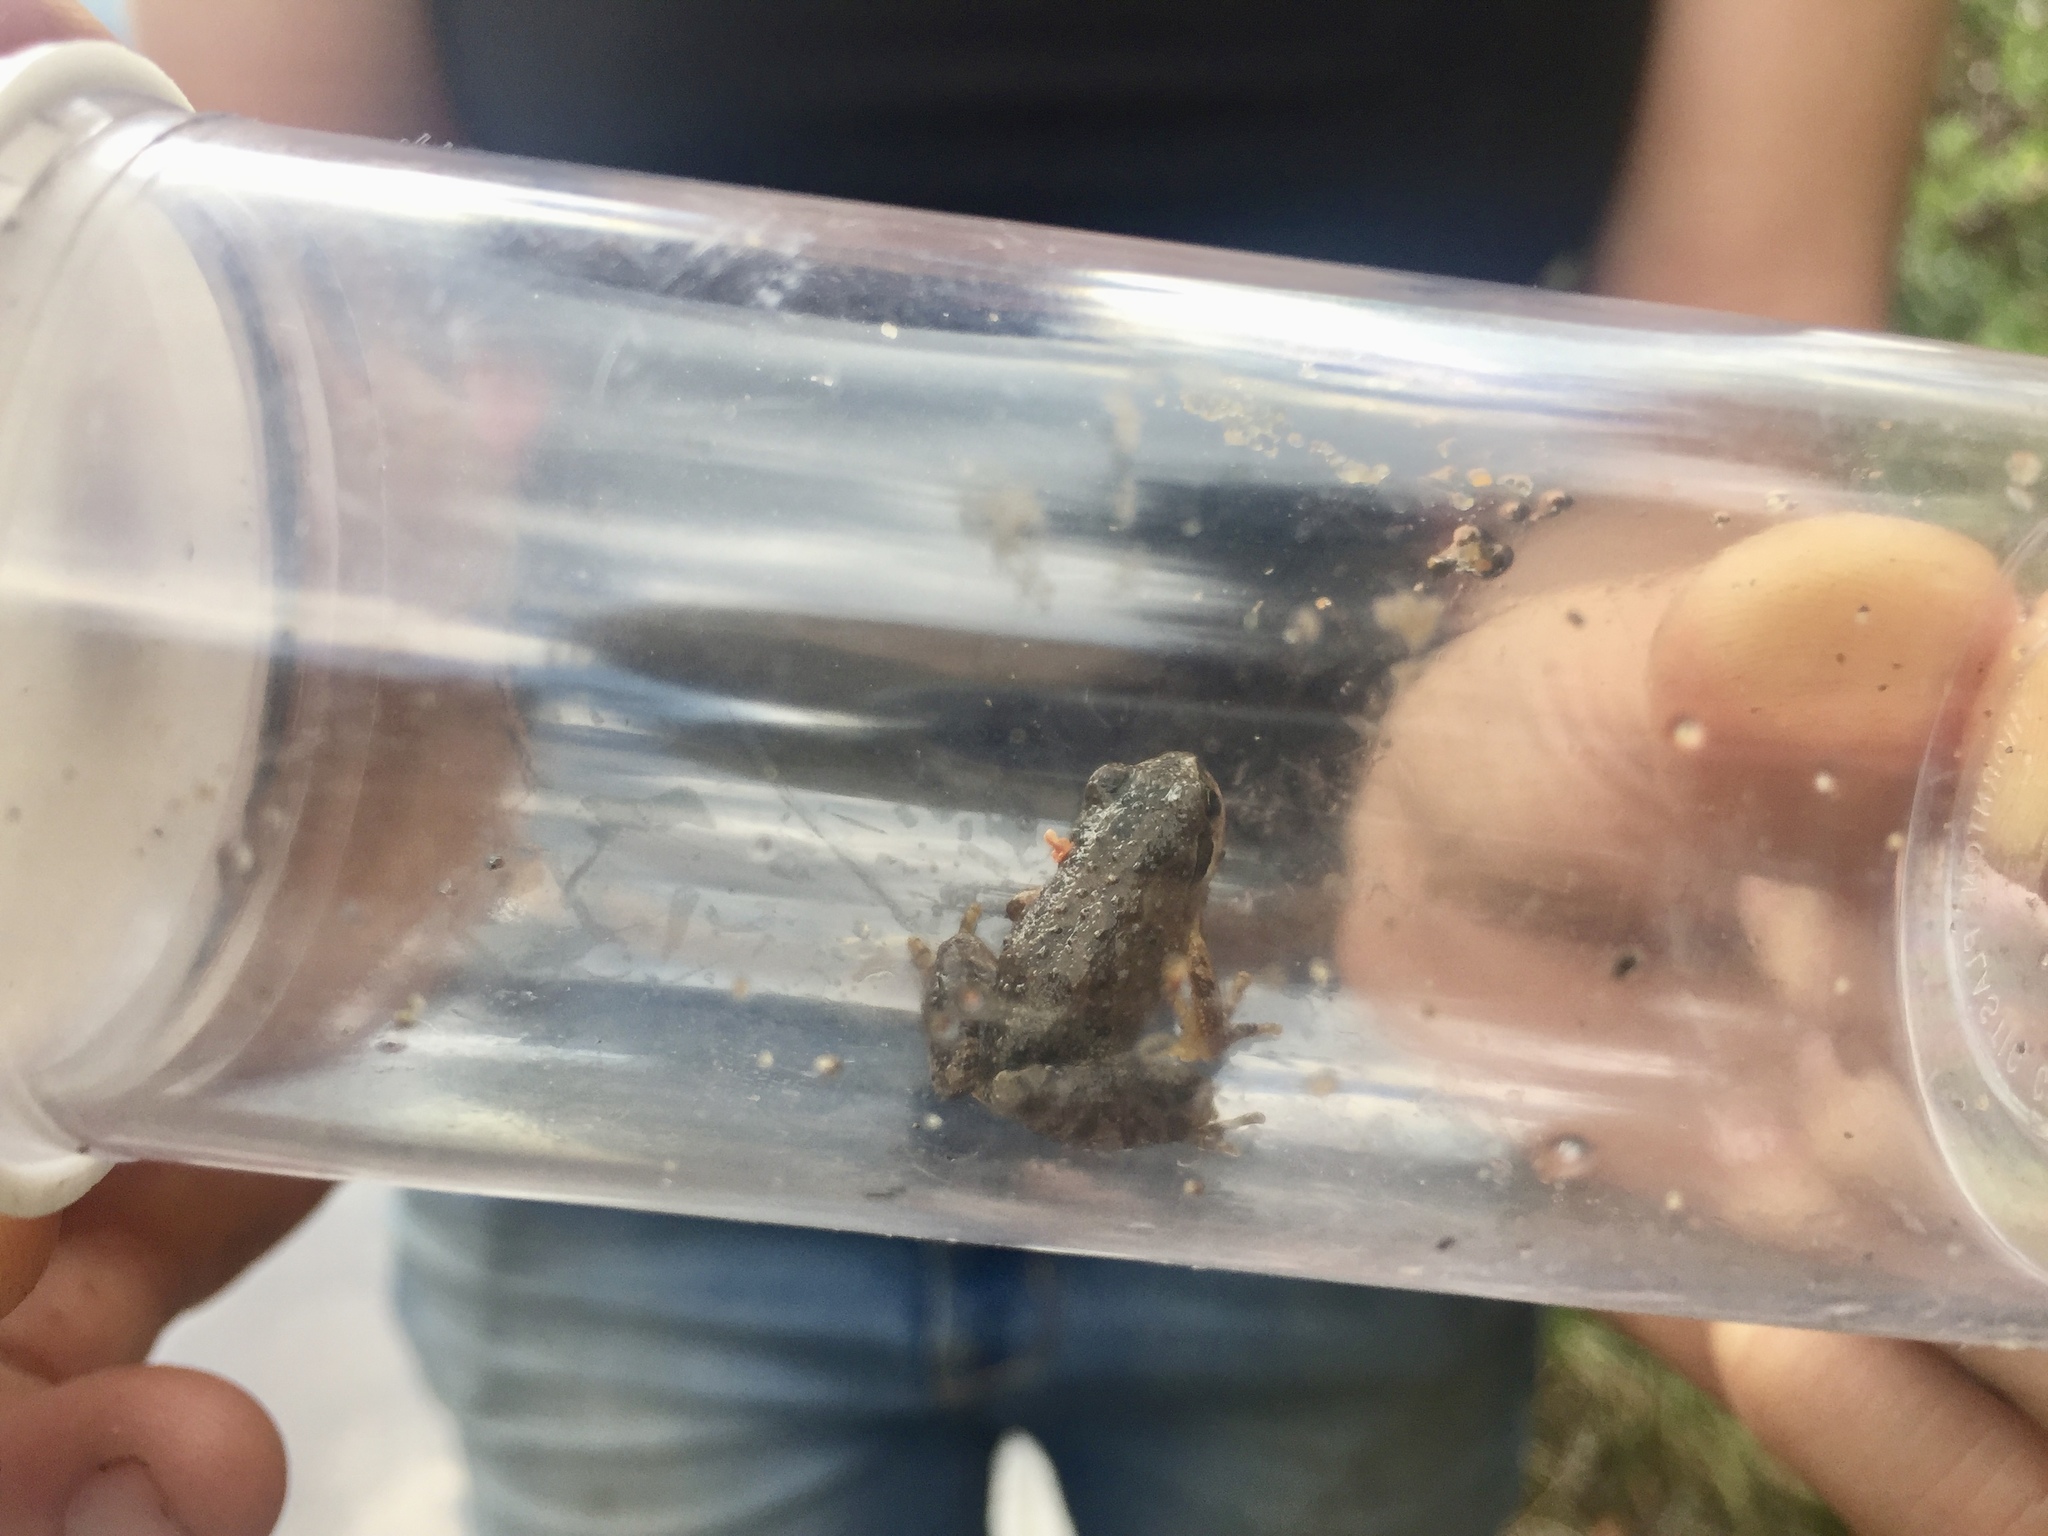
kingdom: Animalia
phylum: Chordata
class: Amphibia
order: Anura
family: Hylidae
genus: Pseudacris
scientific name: Pseudacris regilla
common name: Pacific chorus frog
